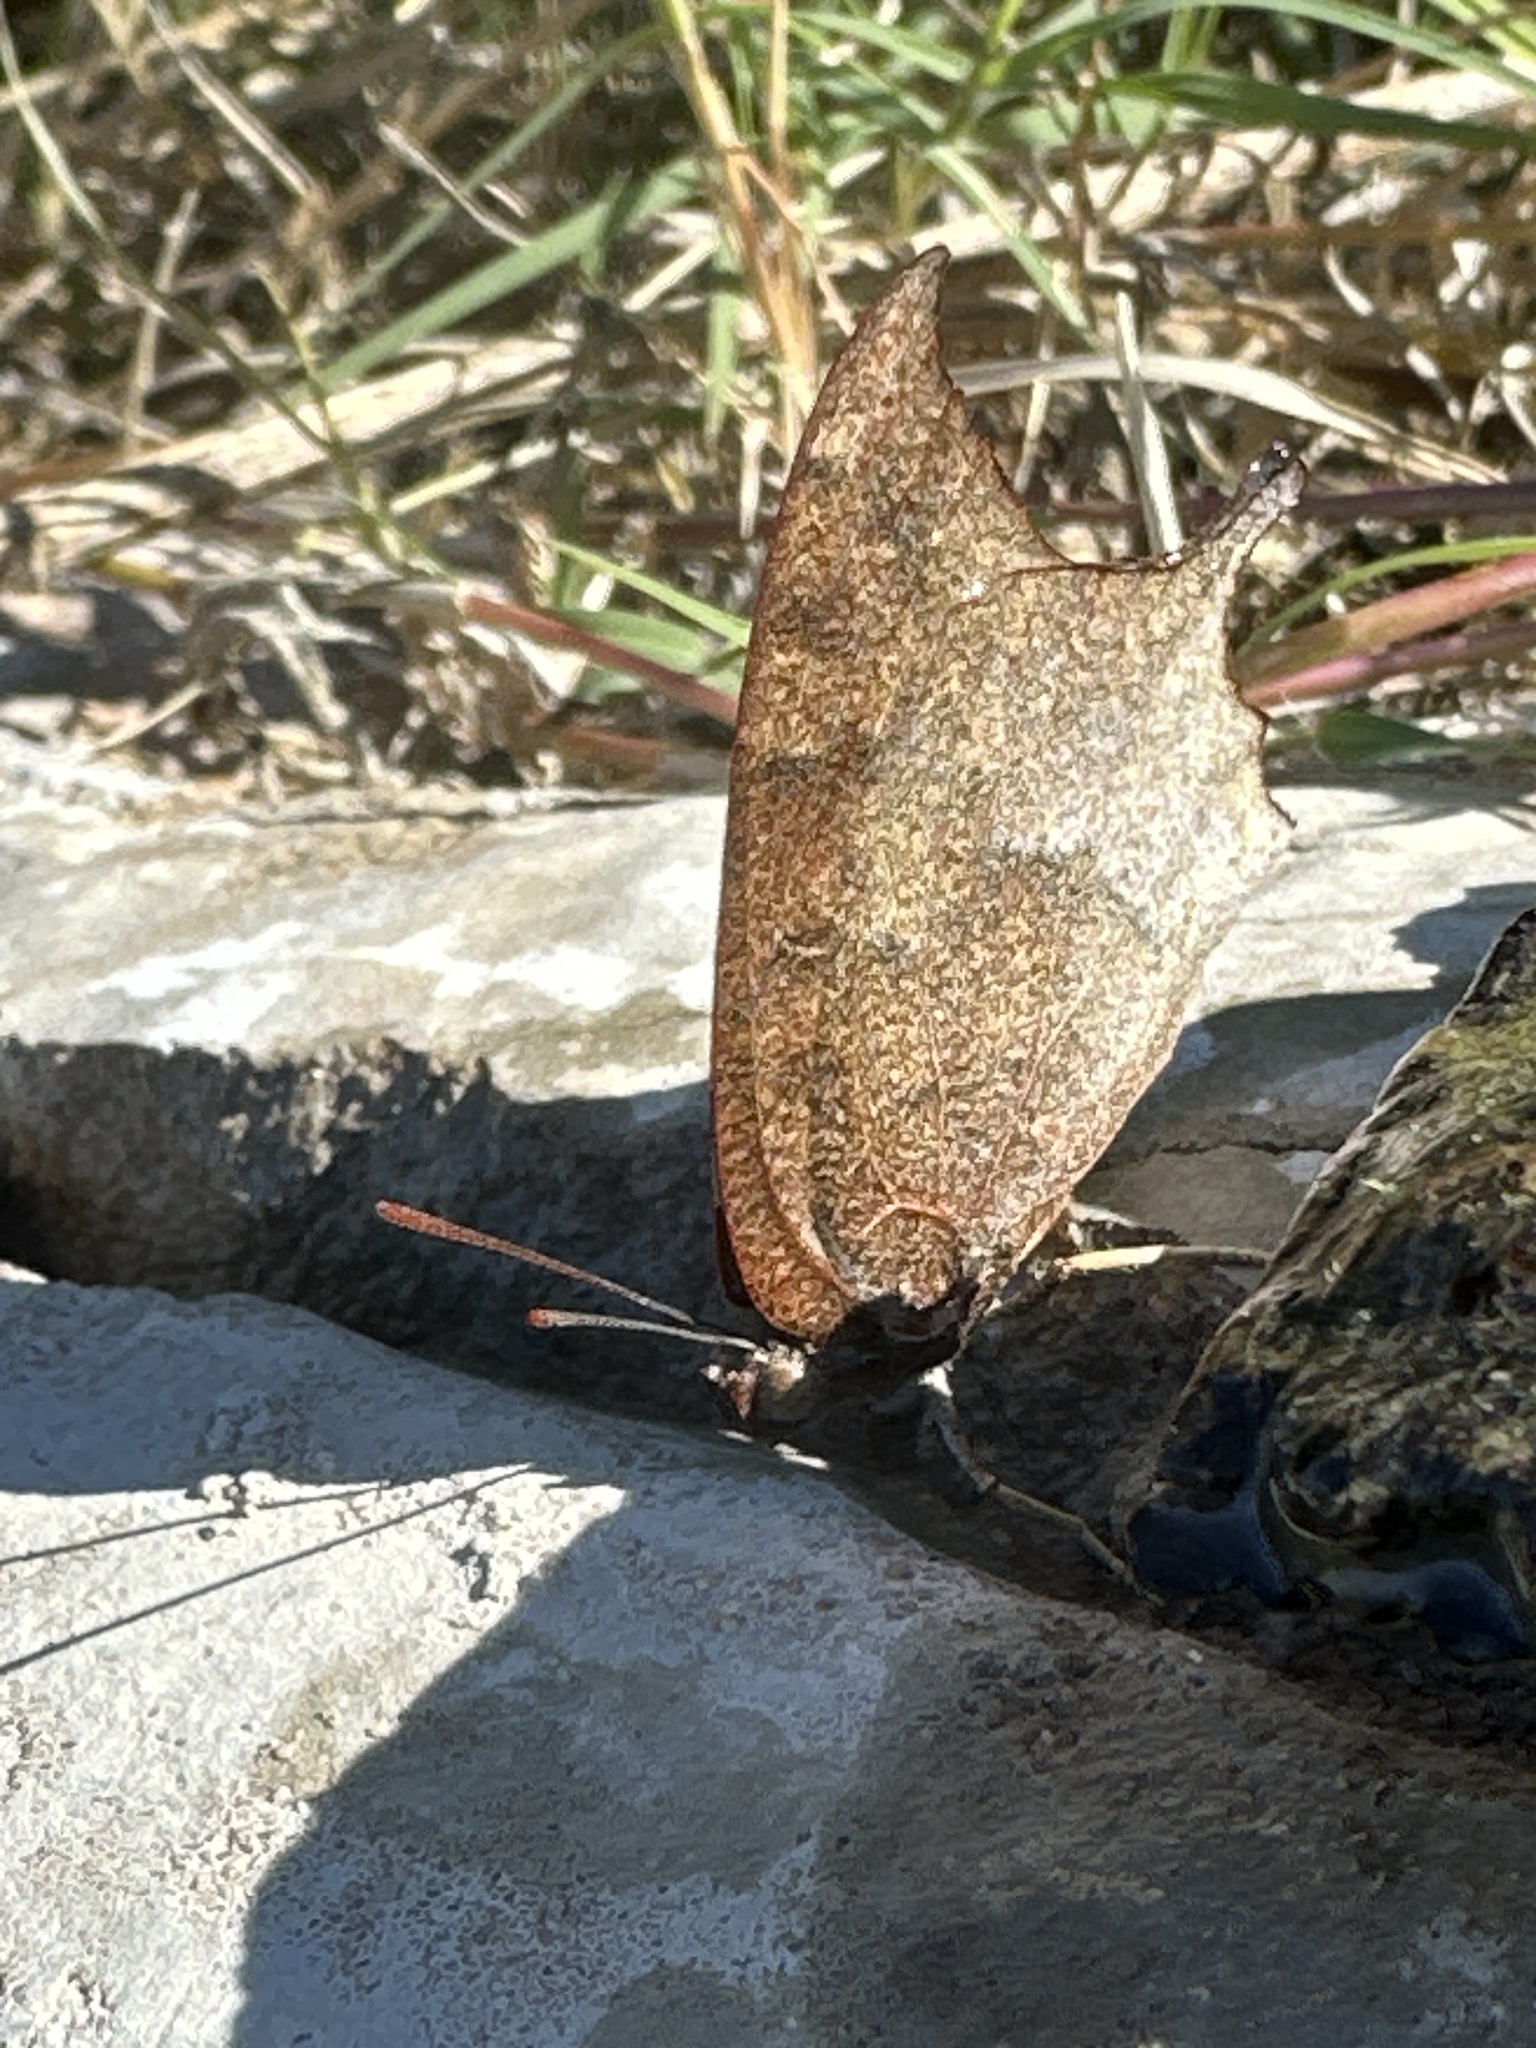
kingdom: Animalia
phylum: Arthropoda
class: Insecta
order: Lepidoptera
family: Nymphalidae
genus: Anaea
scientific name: Anaea andria
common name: Goatweed leafwing
